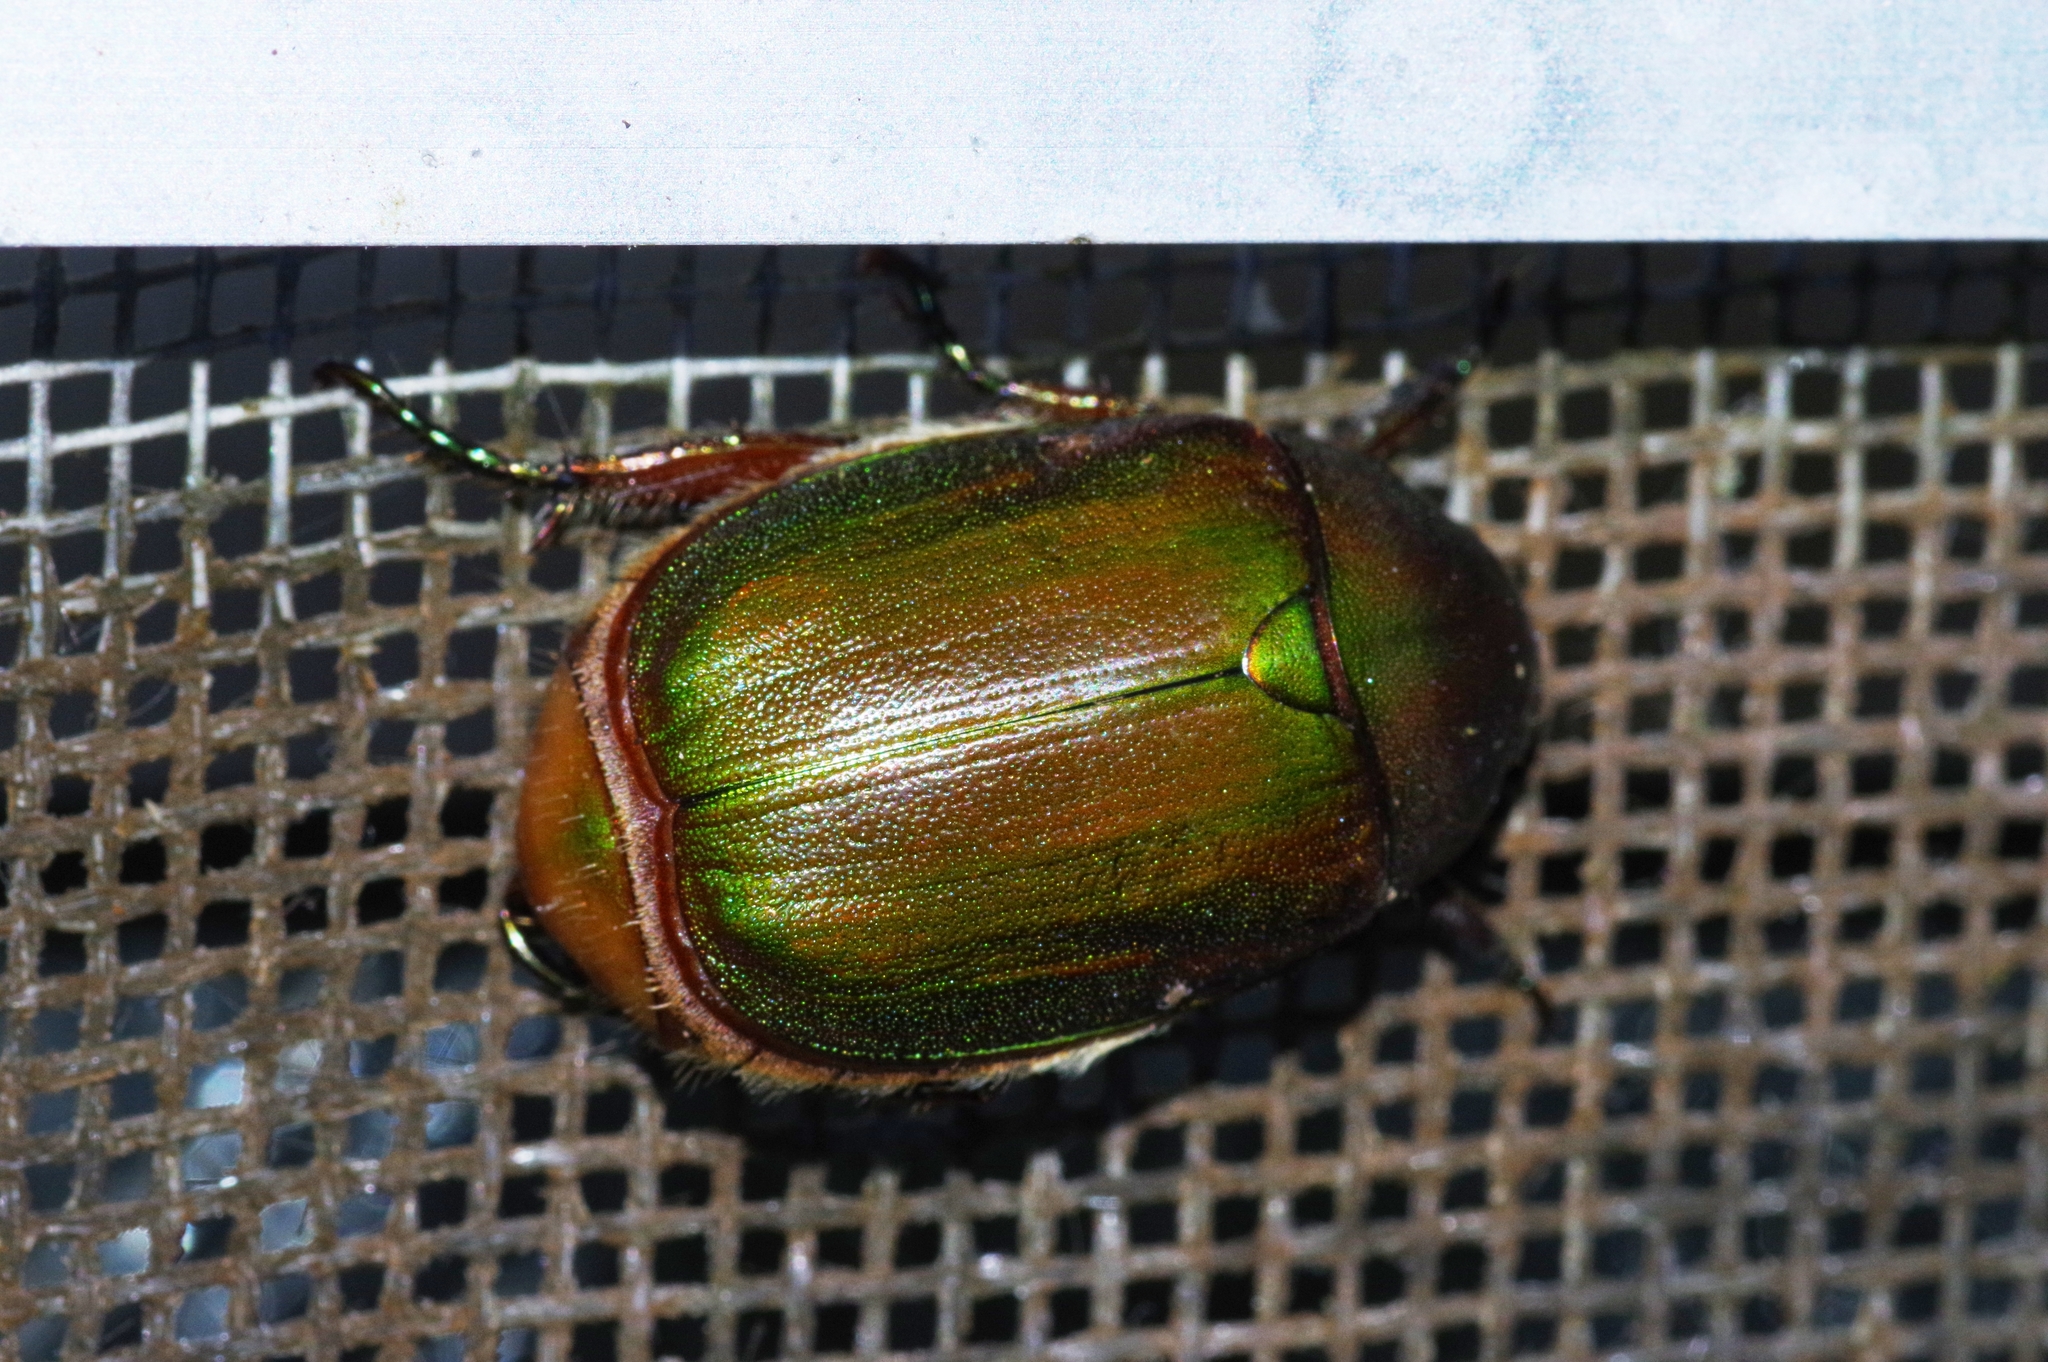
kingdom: Animalia
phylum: Arthropoda
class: Insecta
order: Coleoptera
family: Scarabaeidae
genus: Anomala
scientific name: Anomala albopilosa
